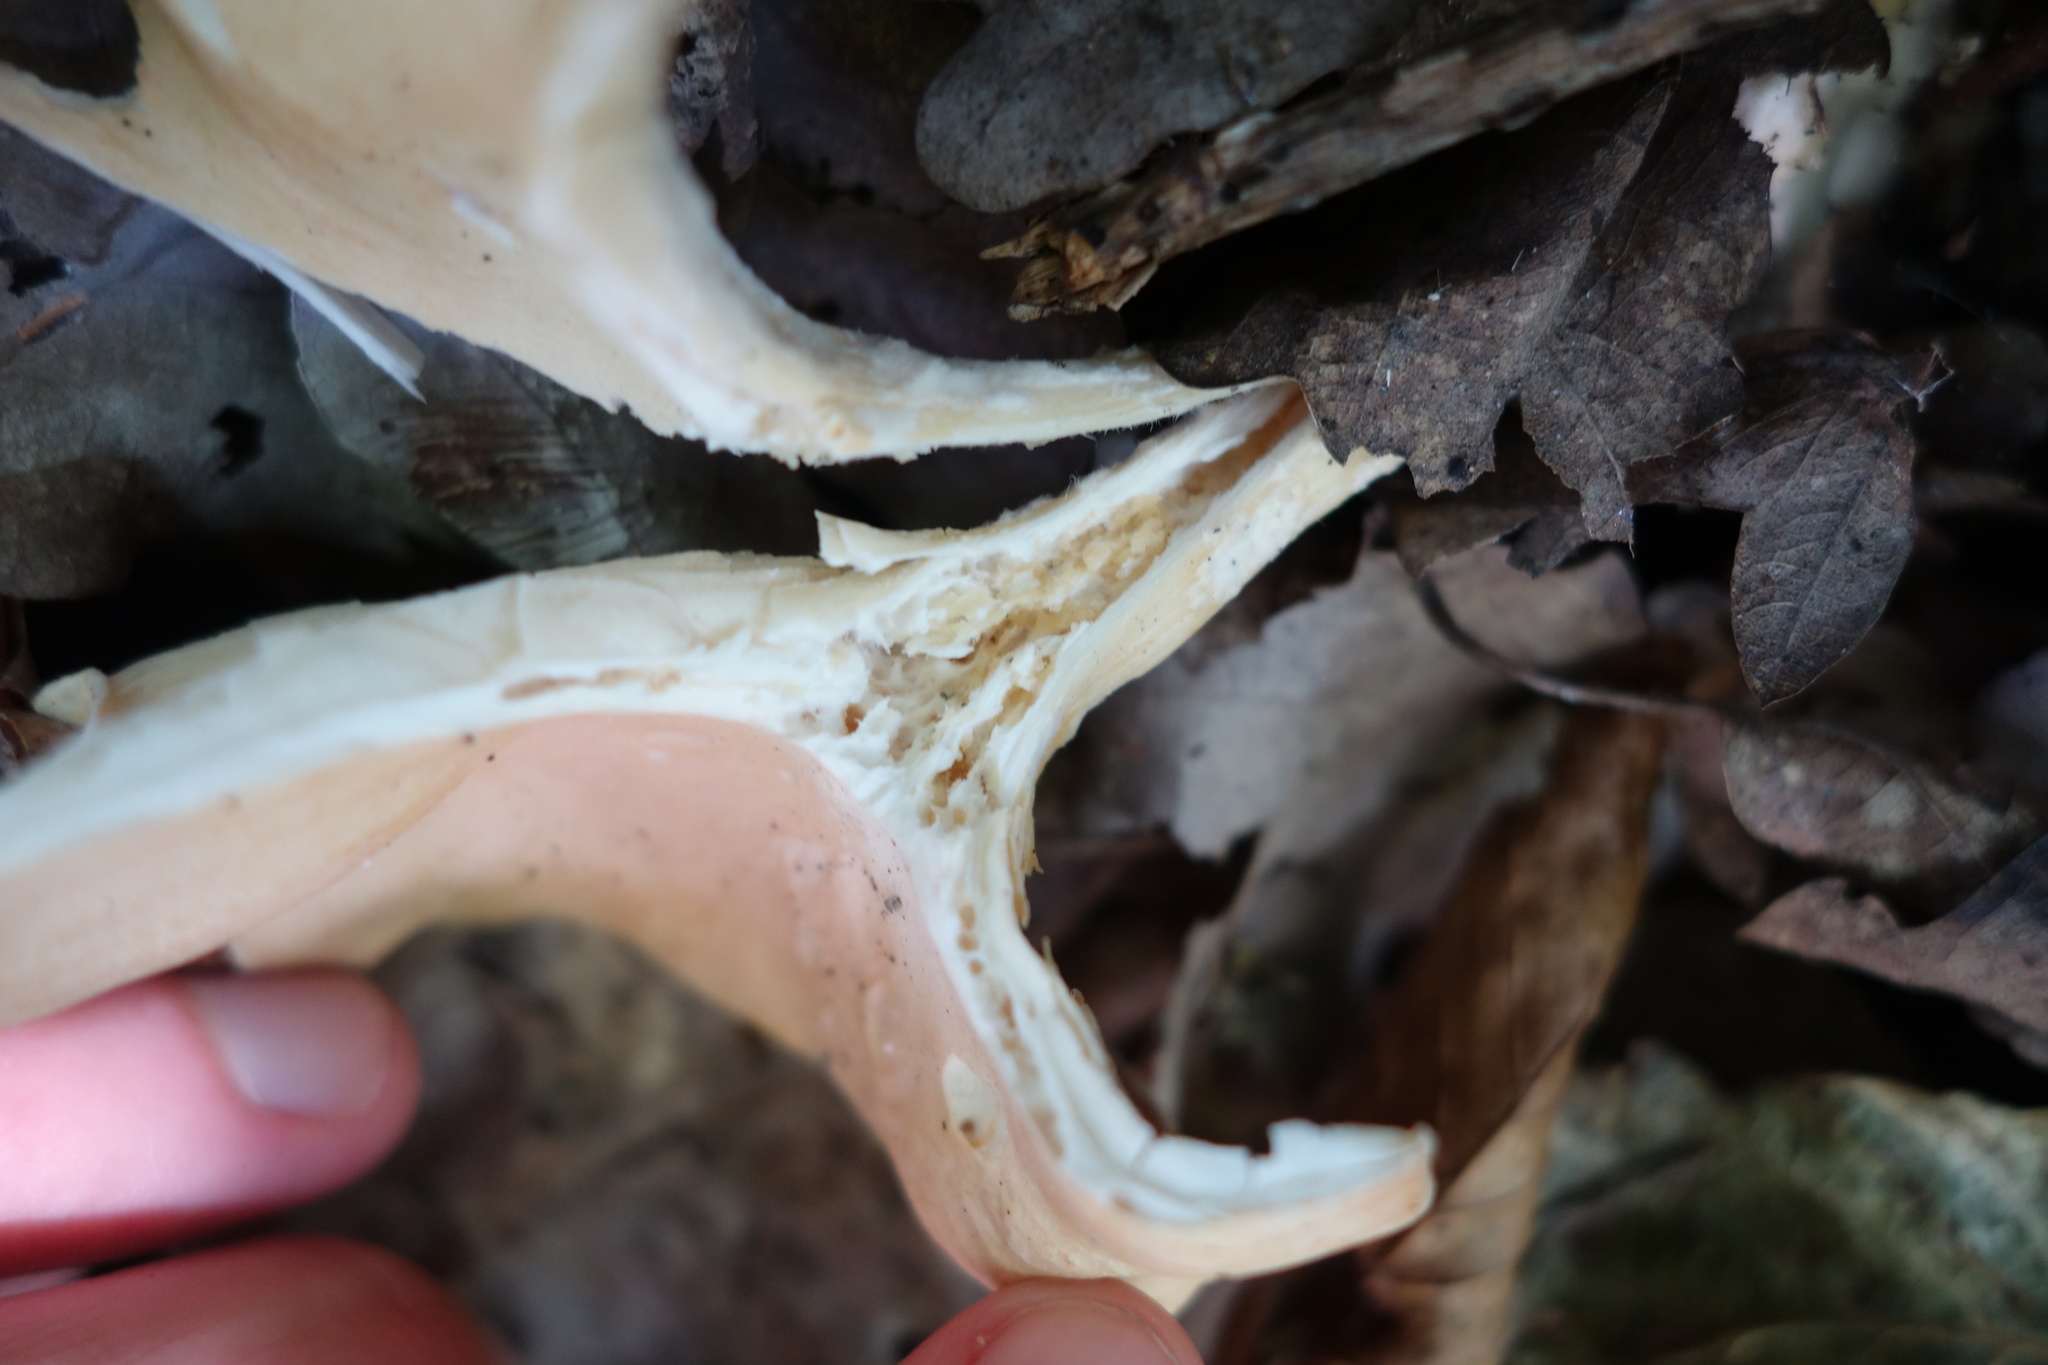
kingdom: Fungi
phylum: Basidiomycota
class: Agaricomycetes
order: Agaricales
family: Tricholomataceae
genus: Infundibulicybe
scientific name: Infundibulicybe gibba
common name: Common funnel
